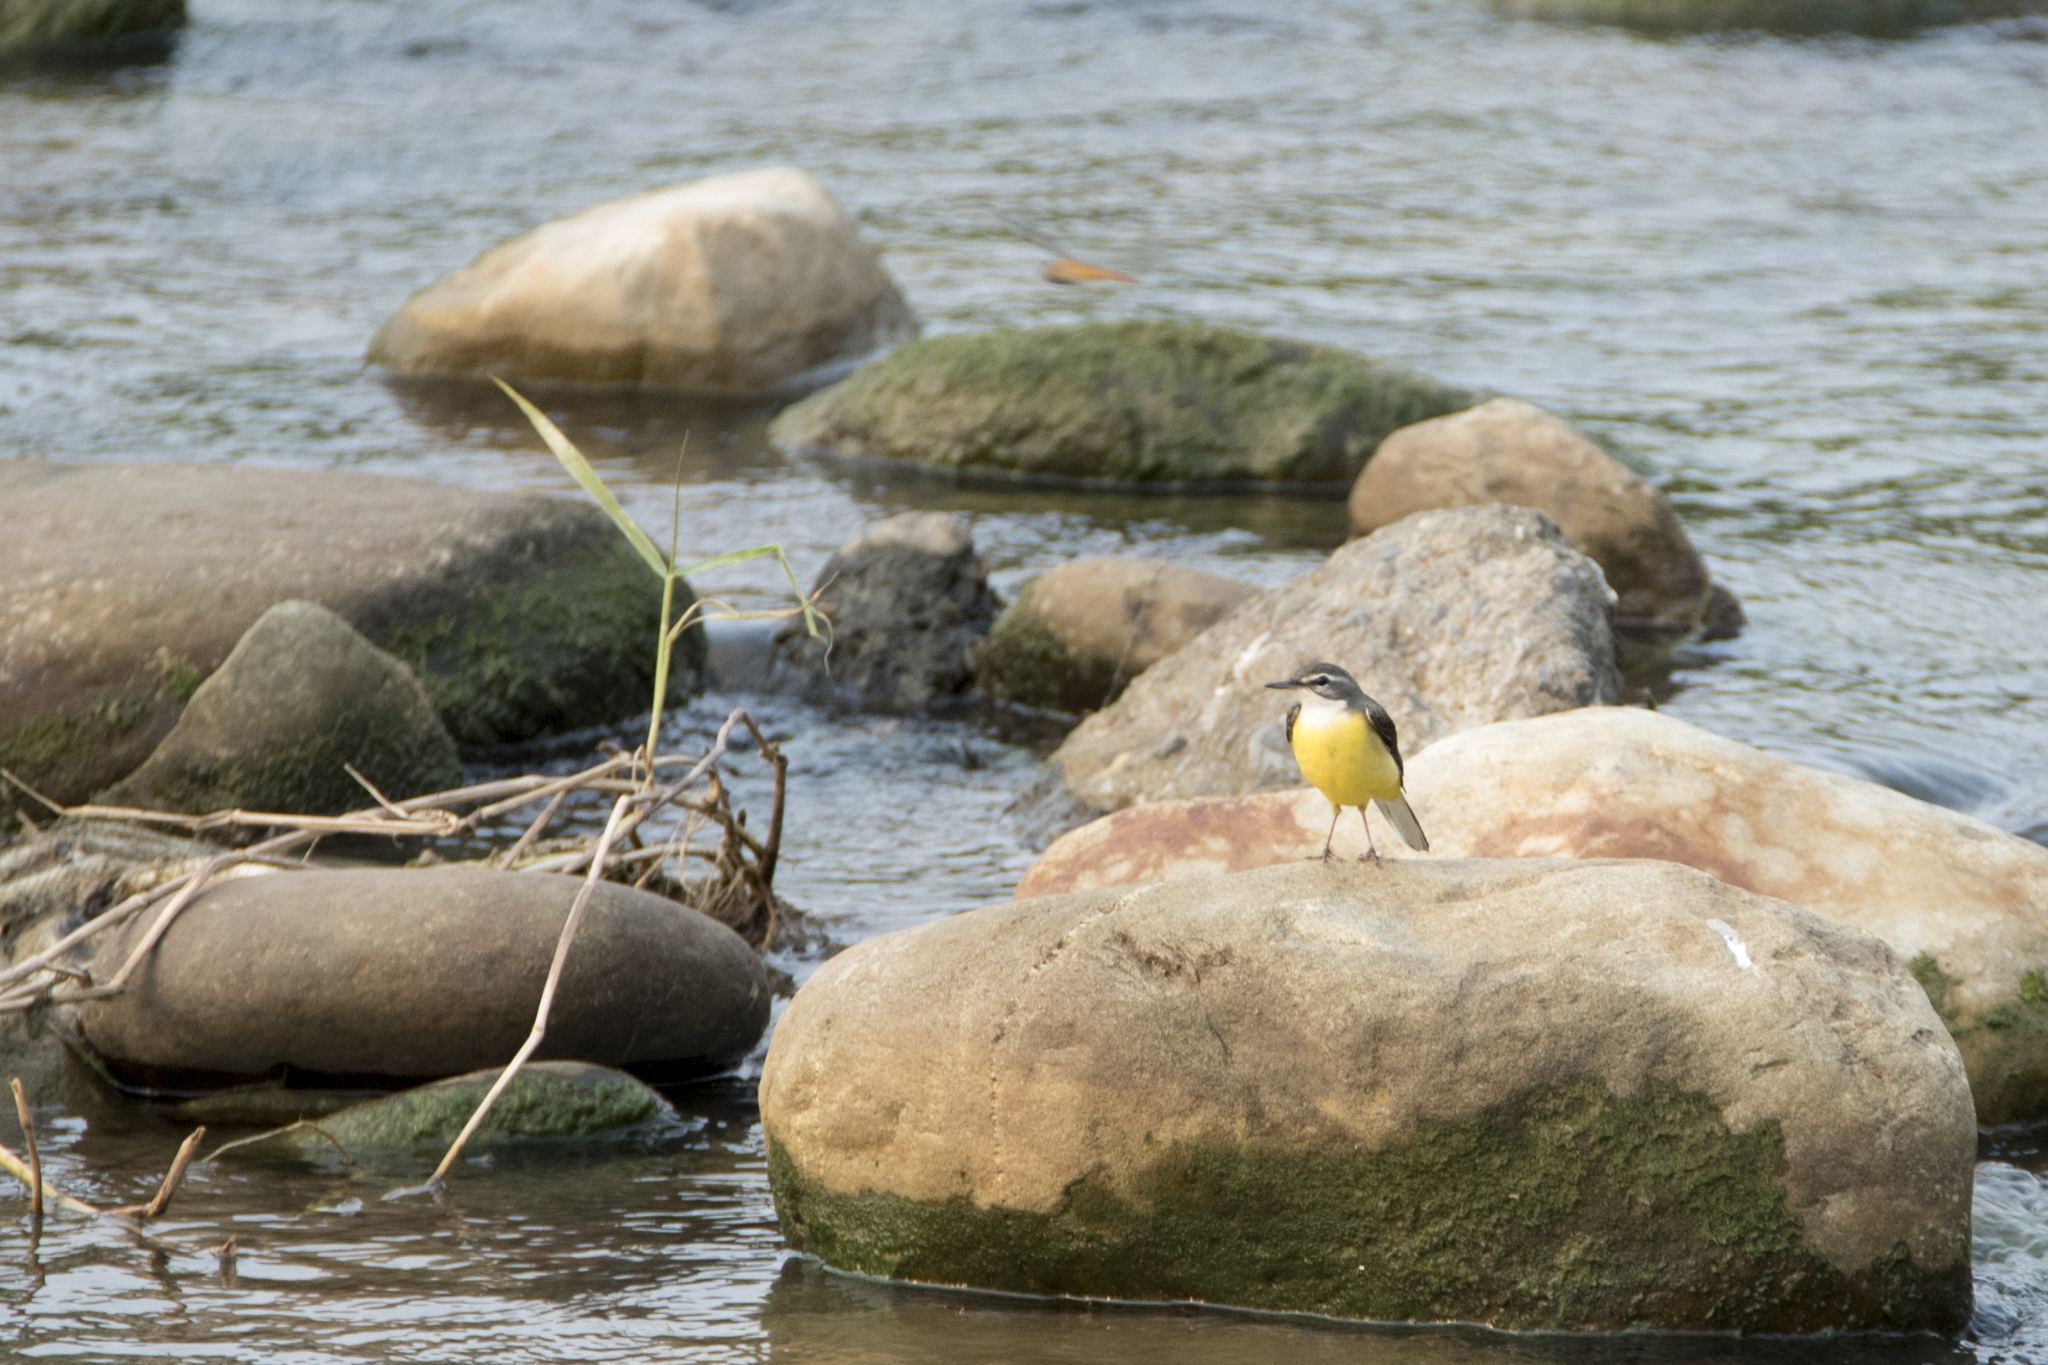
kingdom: Animalia
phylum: Chordata
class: Aves
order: Passeriformes
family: Motacillidae
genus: Motacilla
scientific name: Motacilla cinerea
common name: Grey wagtail
